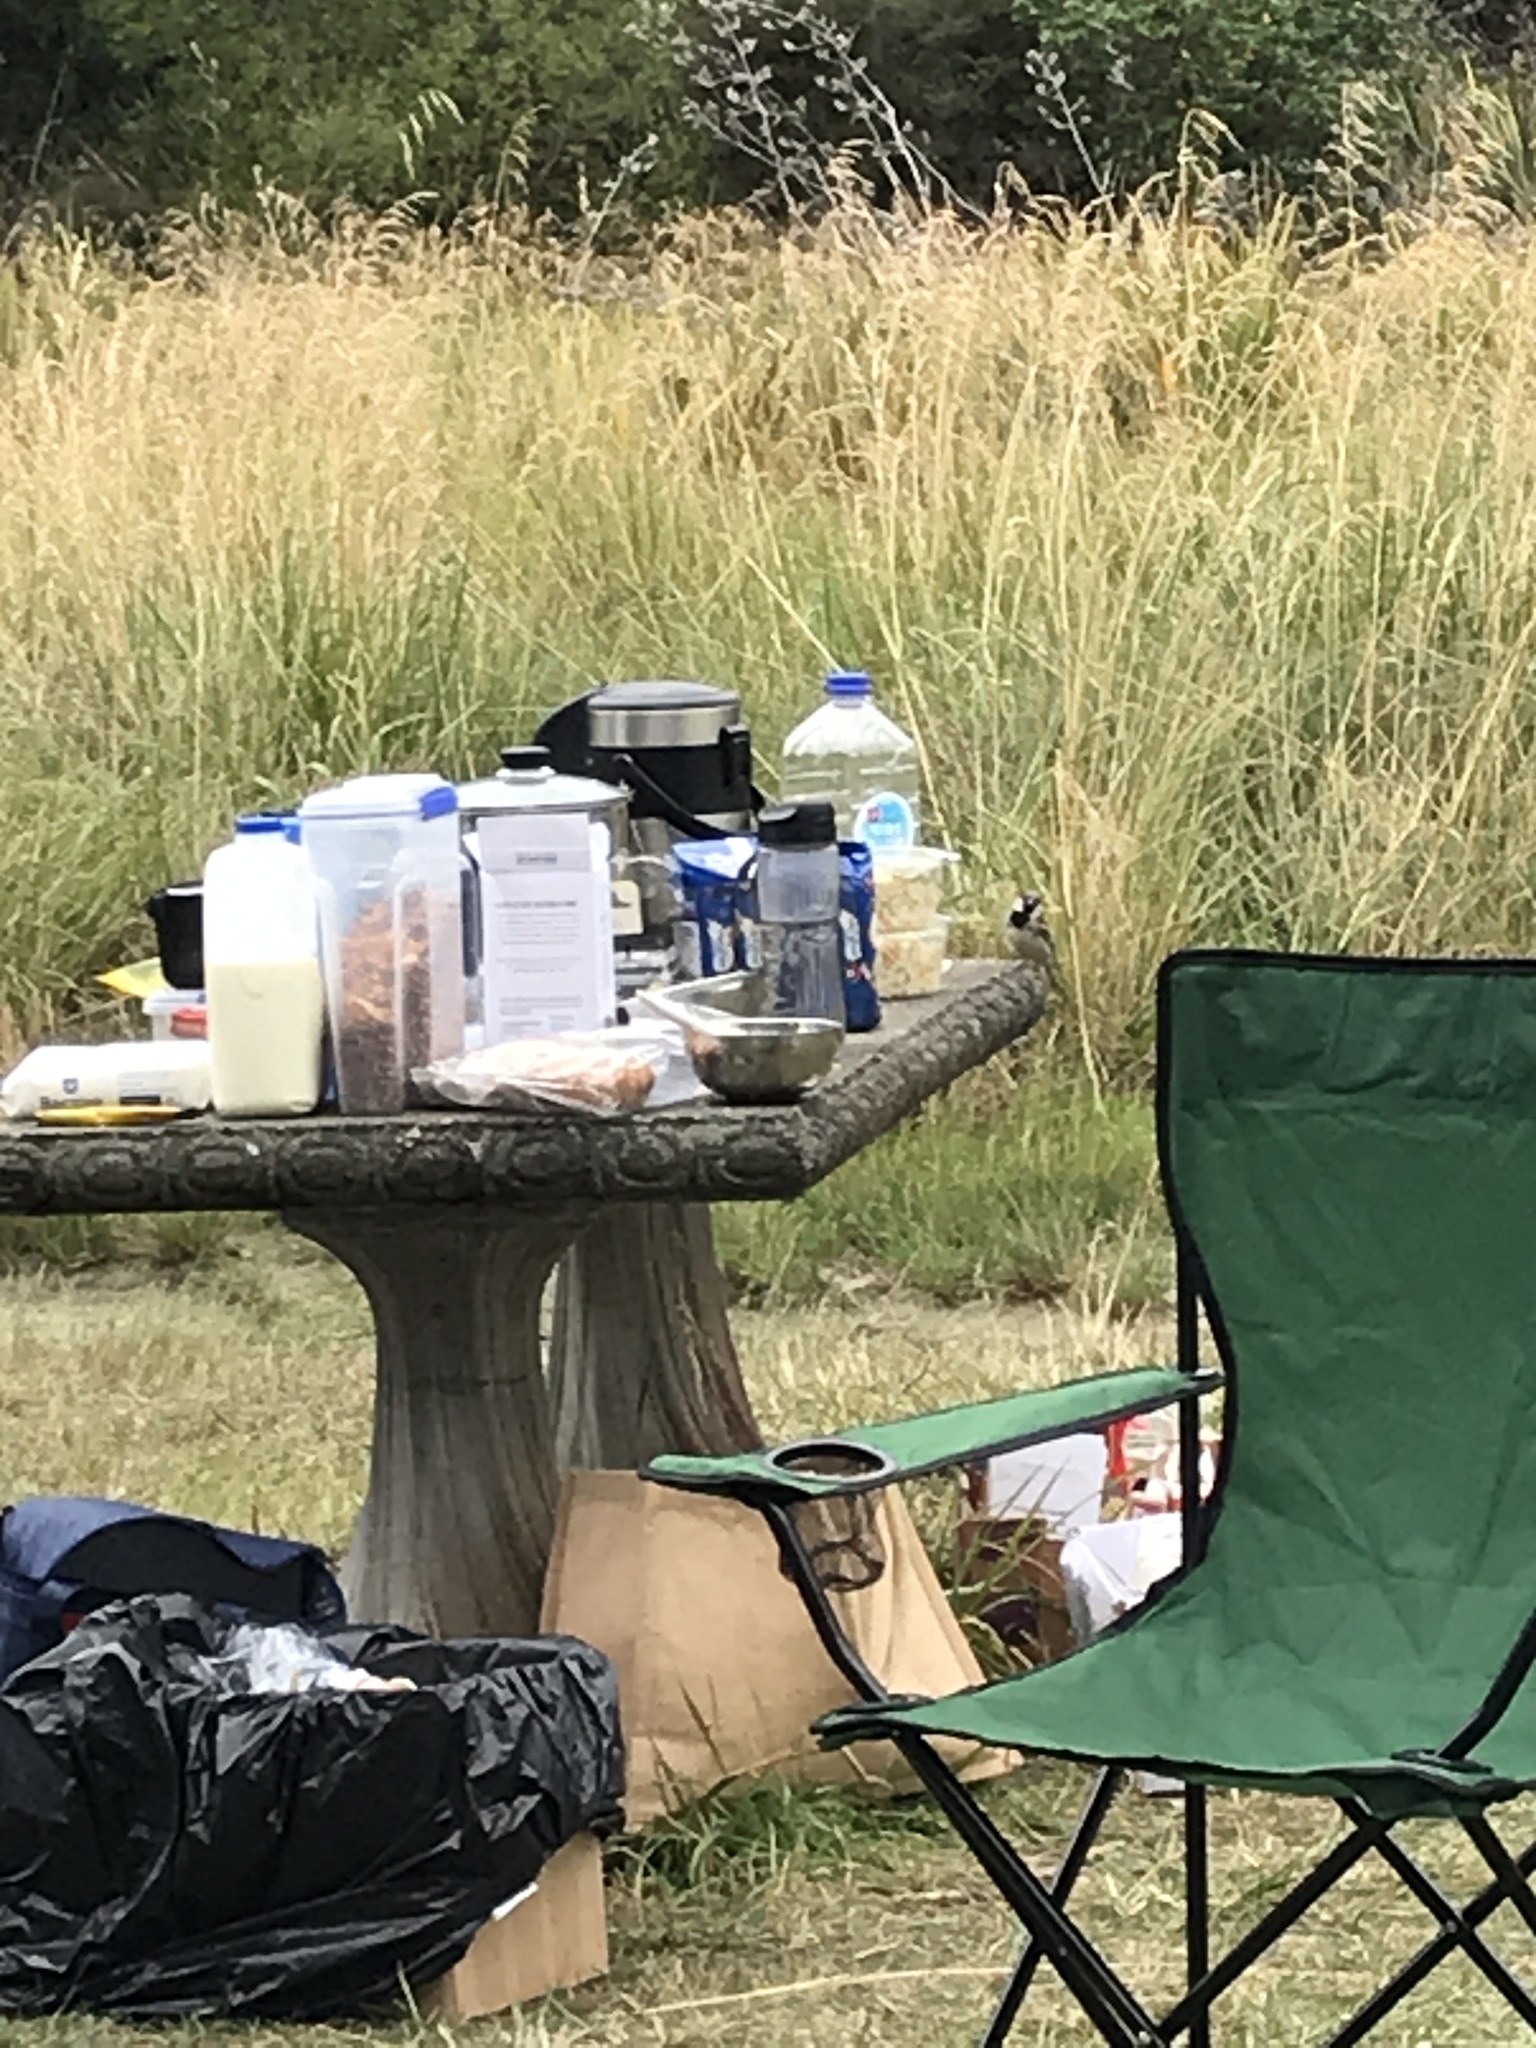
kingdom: Animalia
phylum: Chordata
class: Aves
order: Passeriformes
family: Passeridae
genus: Passer
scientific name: Passer domesticus
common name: House sparrow
